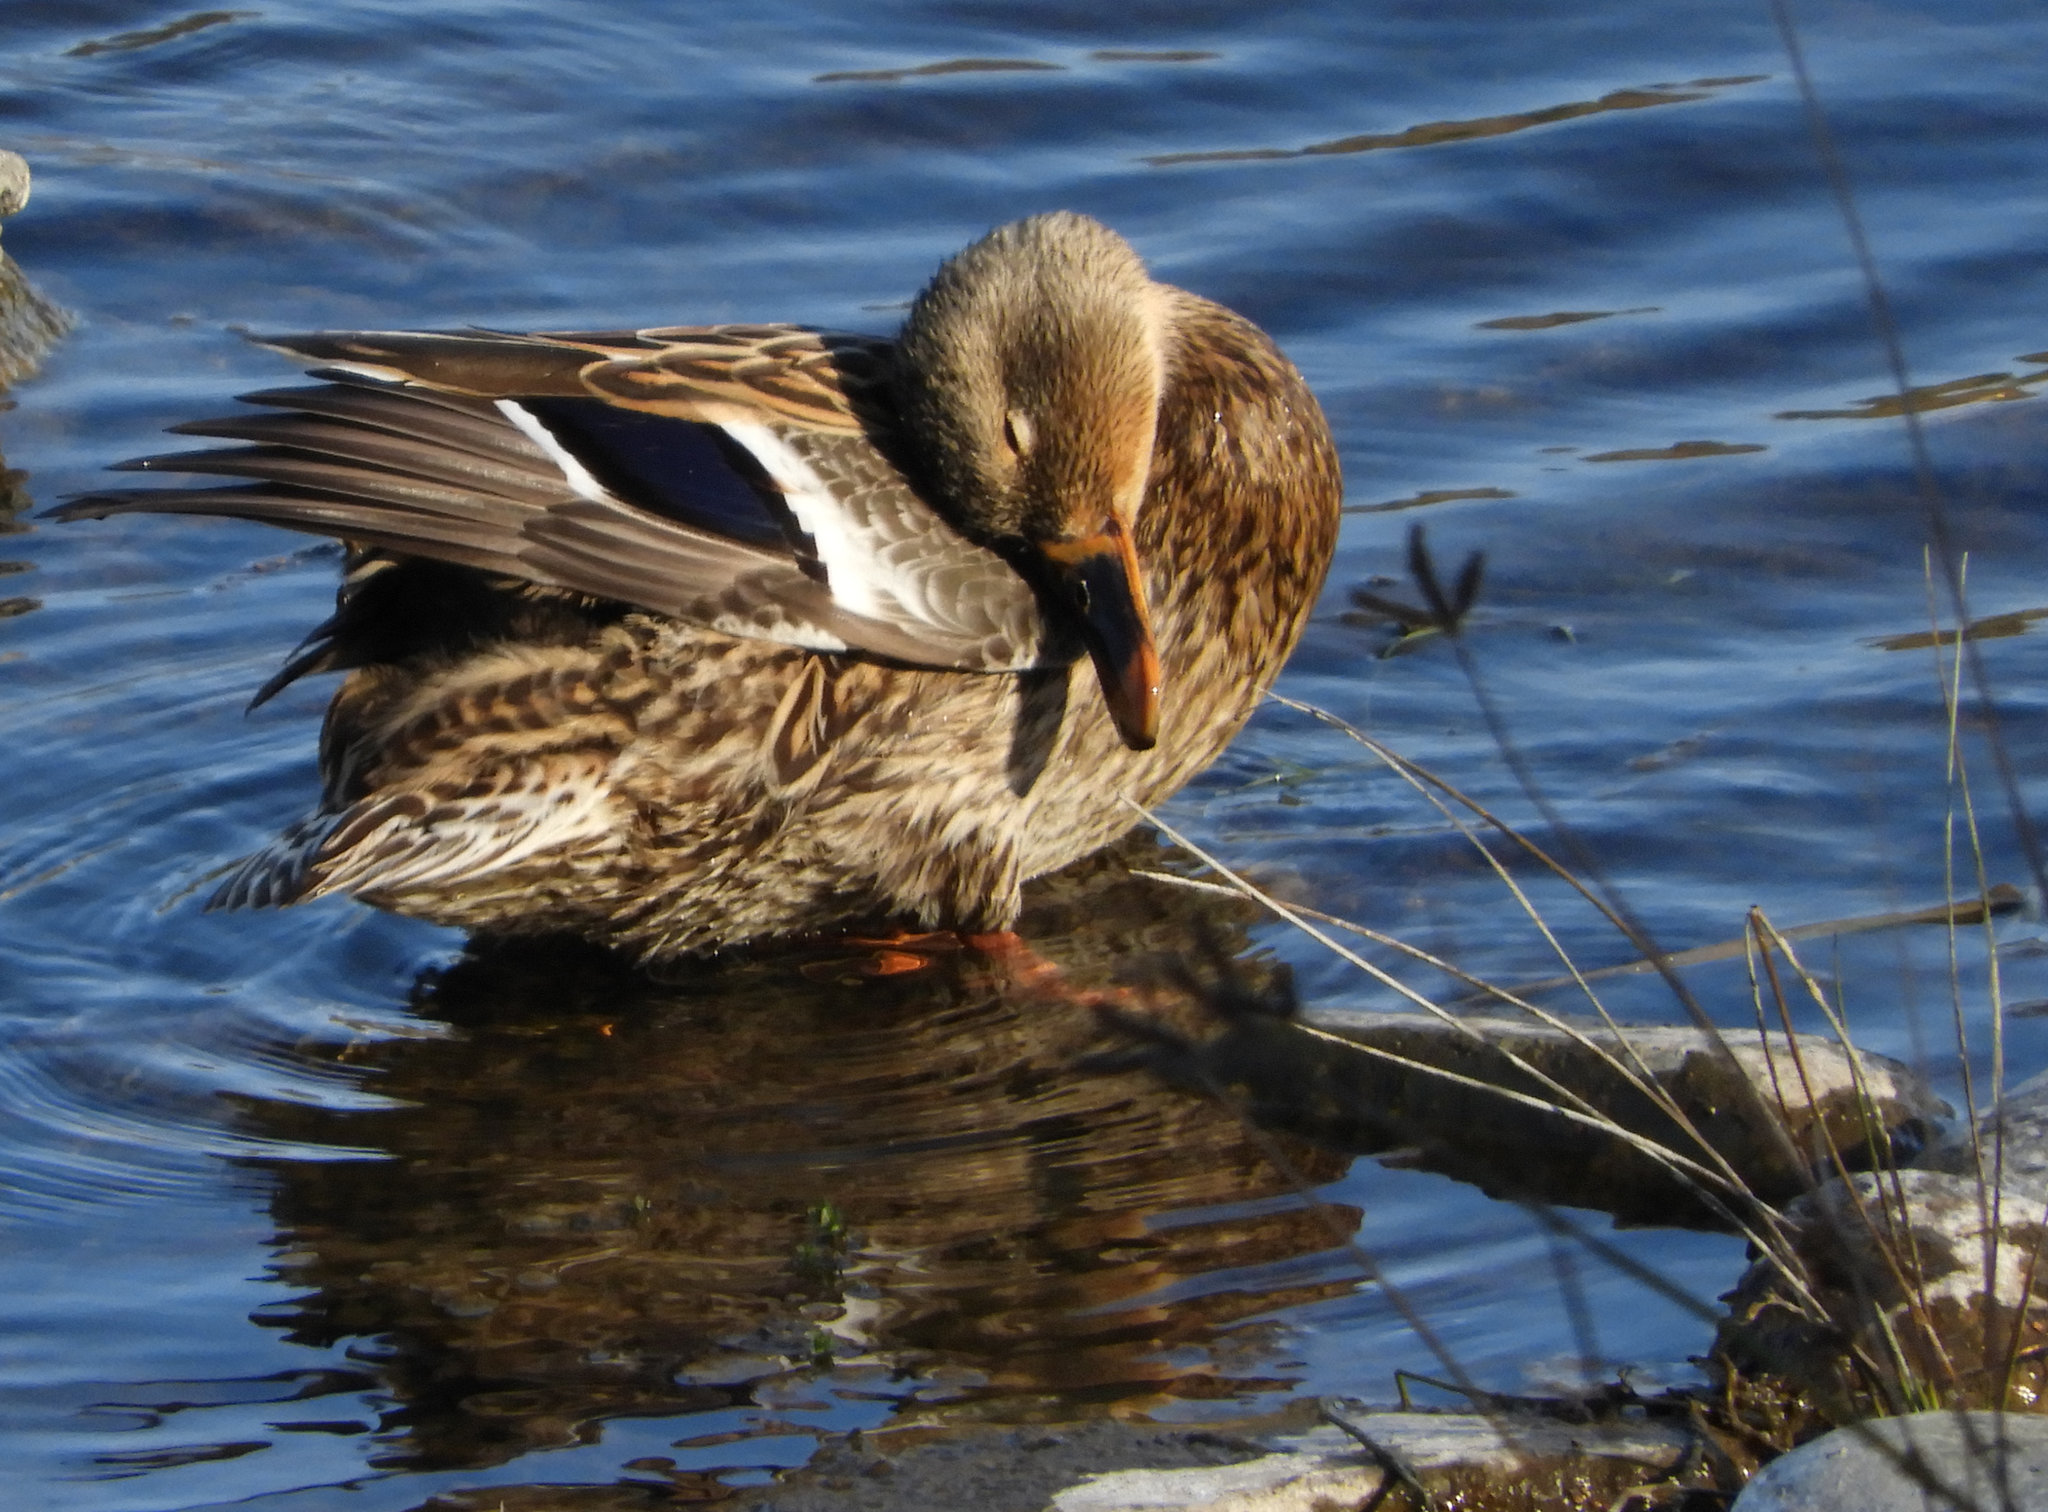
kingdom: Animalia
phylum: Chordata
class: Aves
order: Anseriformes
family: Anatidae
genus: Anas
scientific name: Anas platyrhynchos
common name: Mallard
